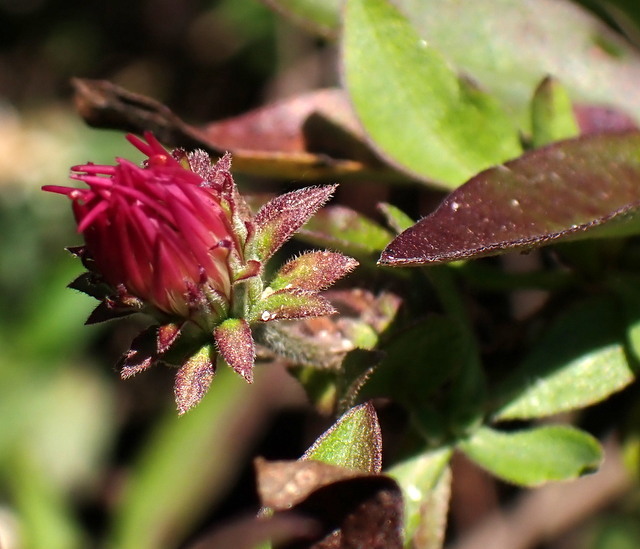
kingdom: Plantae
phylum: Tracheophyta
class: Magnoliopsida
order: Asterales
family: Asteraceae
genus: Ampelaster
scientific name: Ampelaster carolinianus
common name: Climbing aster
